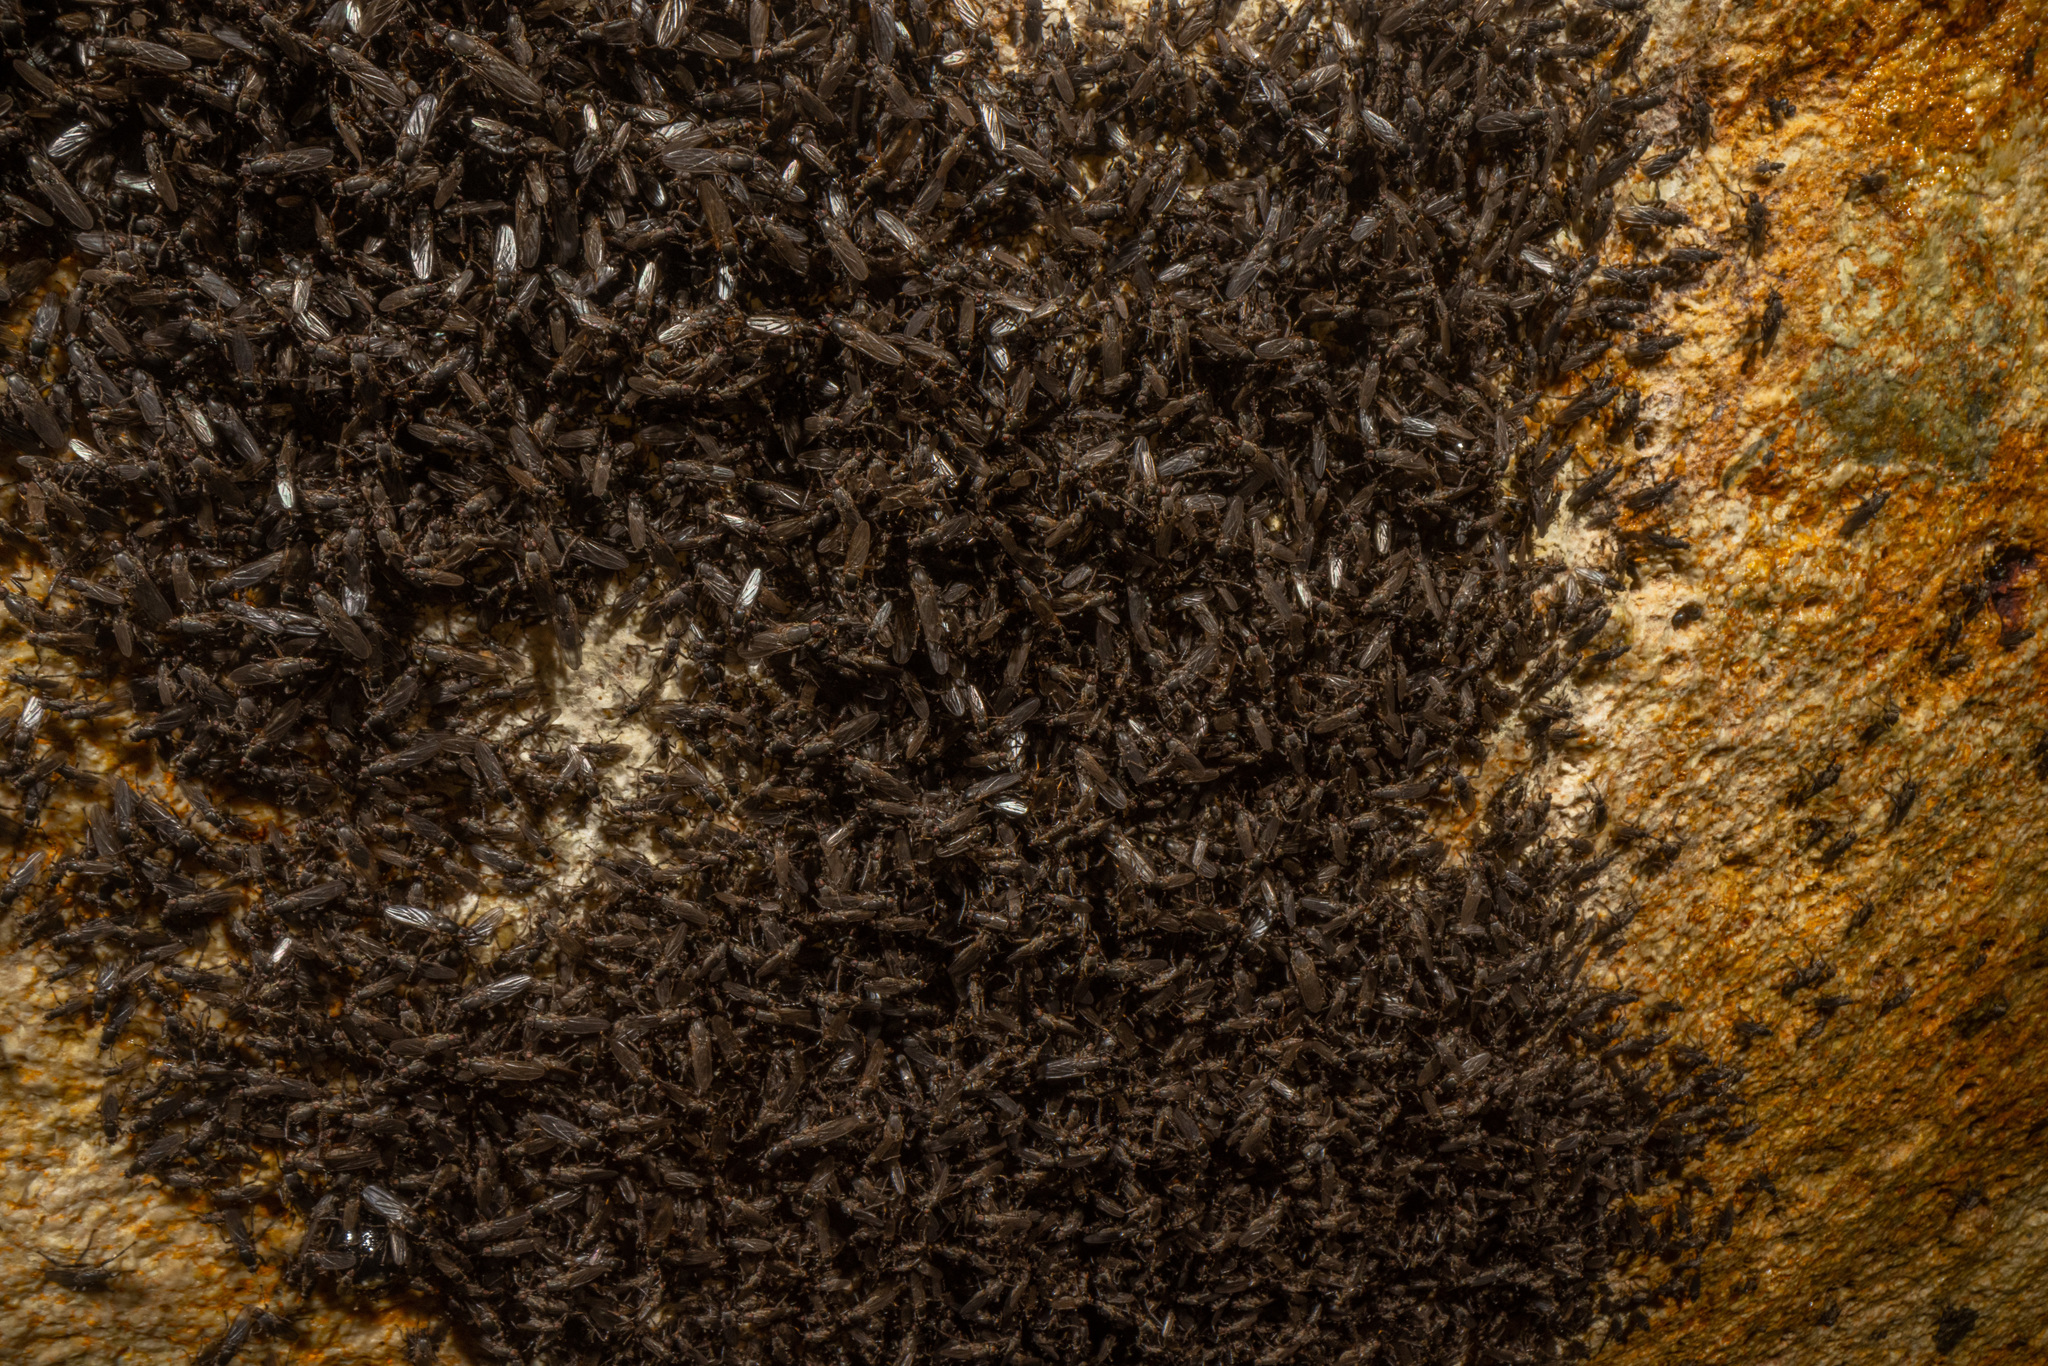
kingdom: Animalia
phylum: Arthropoda
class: Insecta
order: Diptera
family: Coelopidae
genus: Chaetocoelopa
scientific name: Chaetocoelopa littoralis
